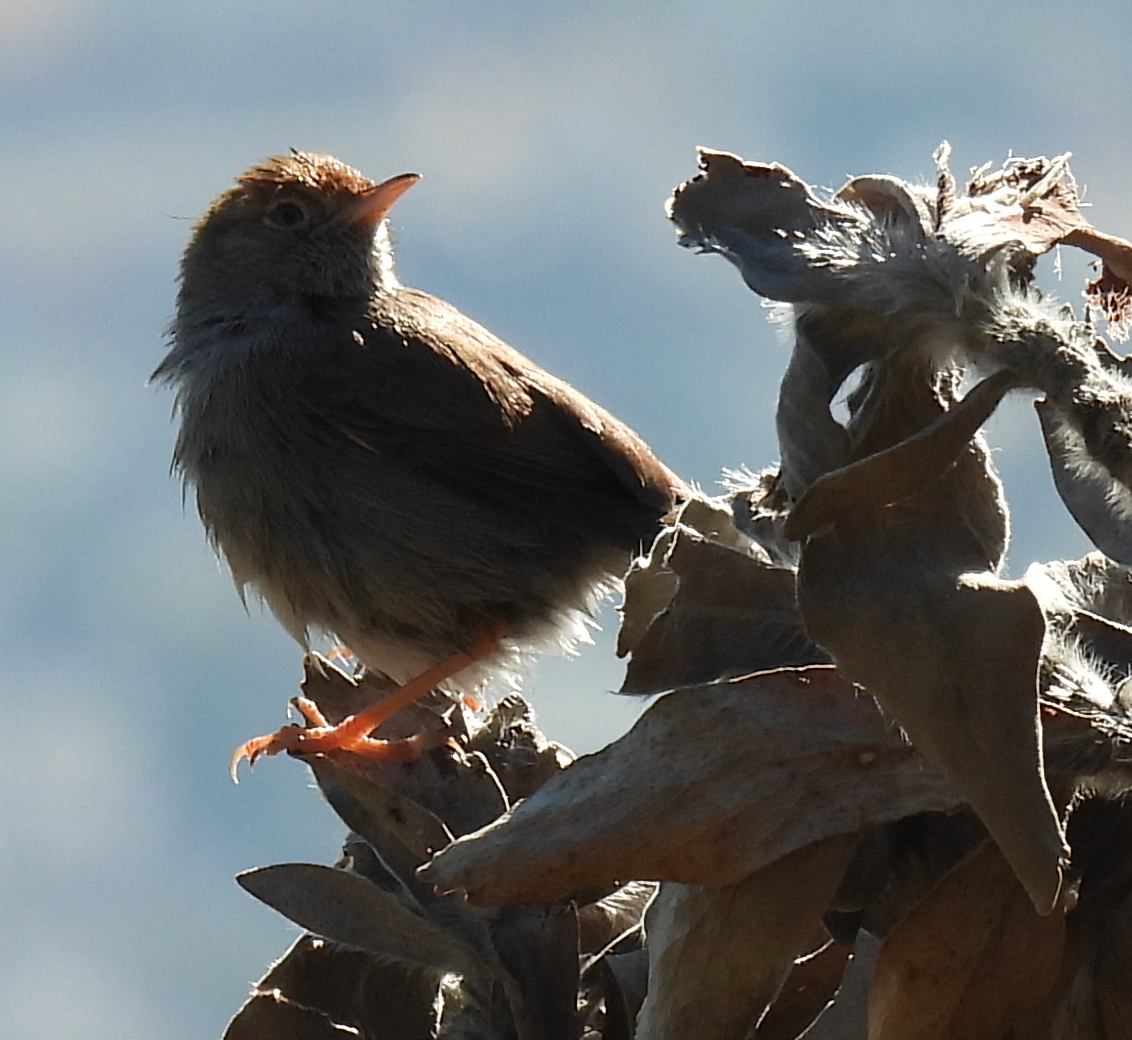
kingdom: Animalia
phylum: Chordata
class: Aves
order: Passeriformes
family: Cisticolidae
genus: Cisticola
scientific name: Cisticola fulvicapilla
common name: Neddicky
